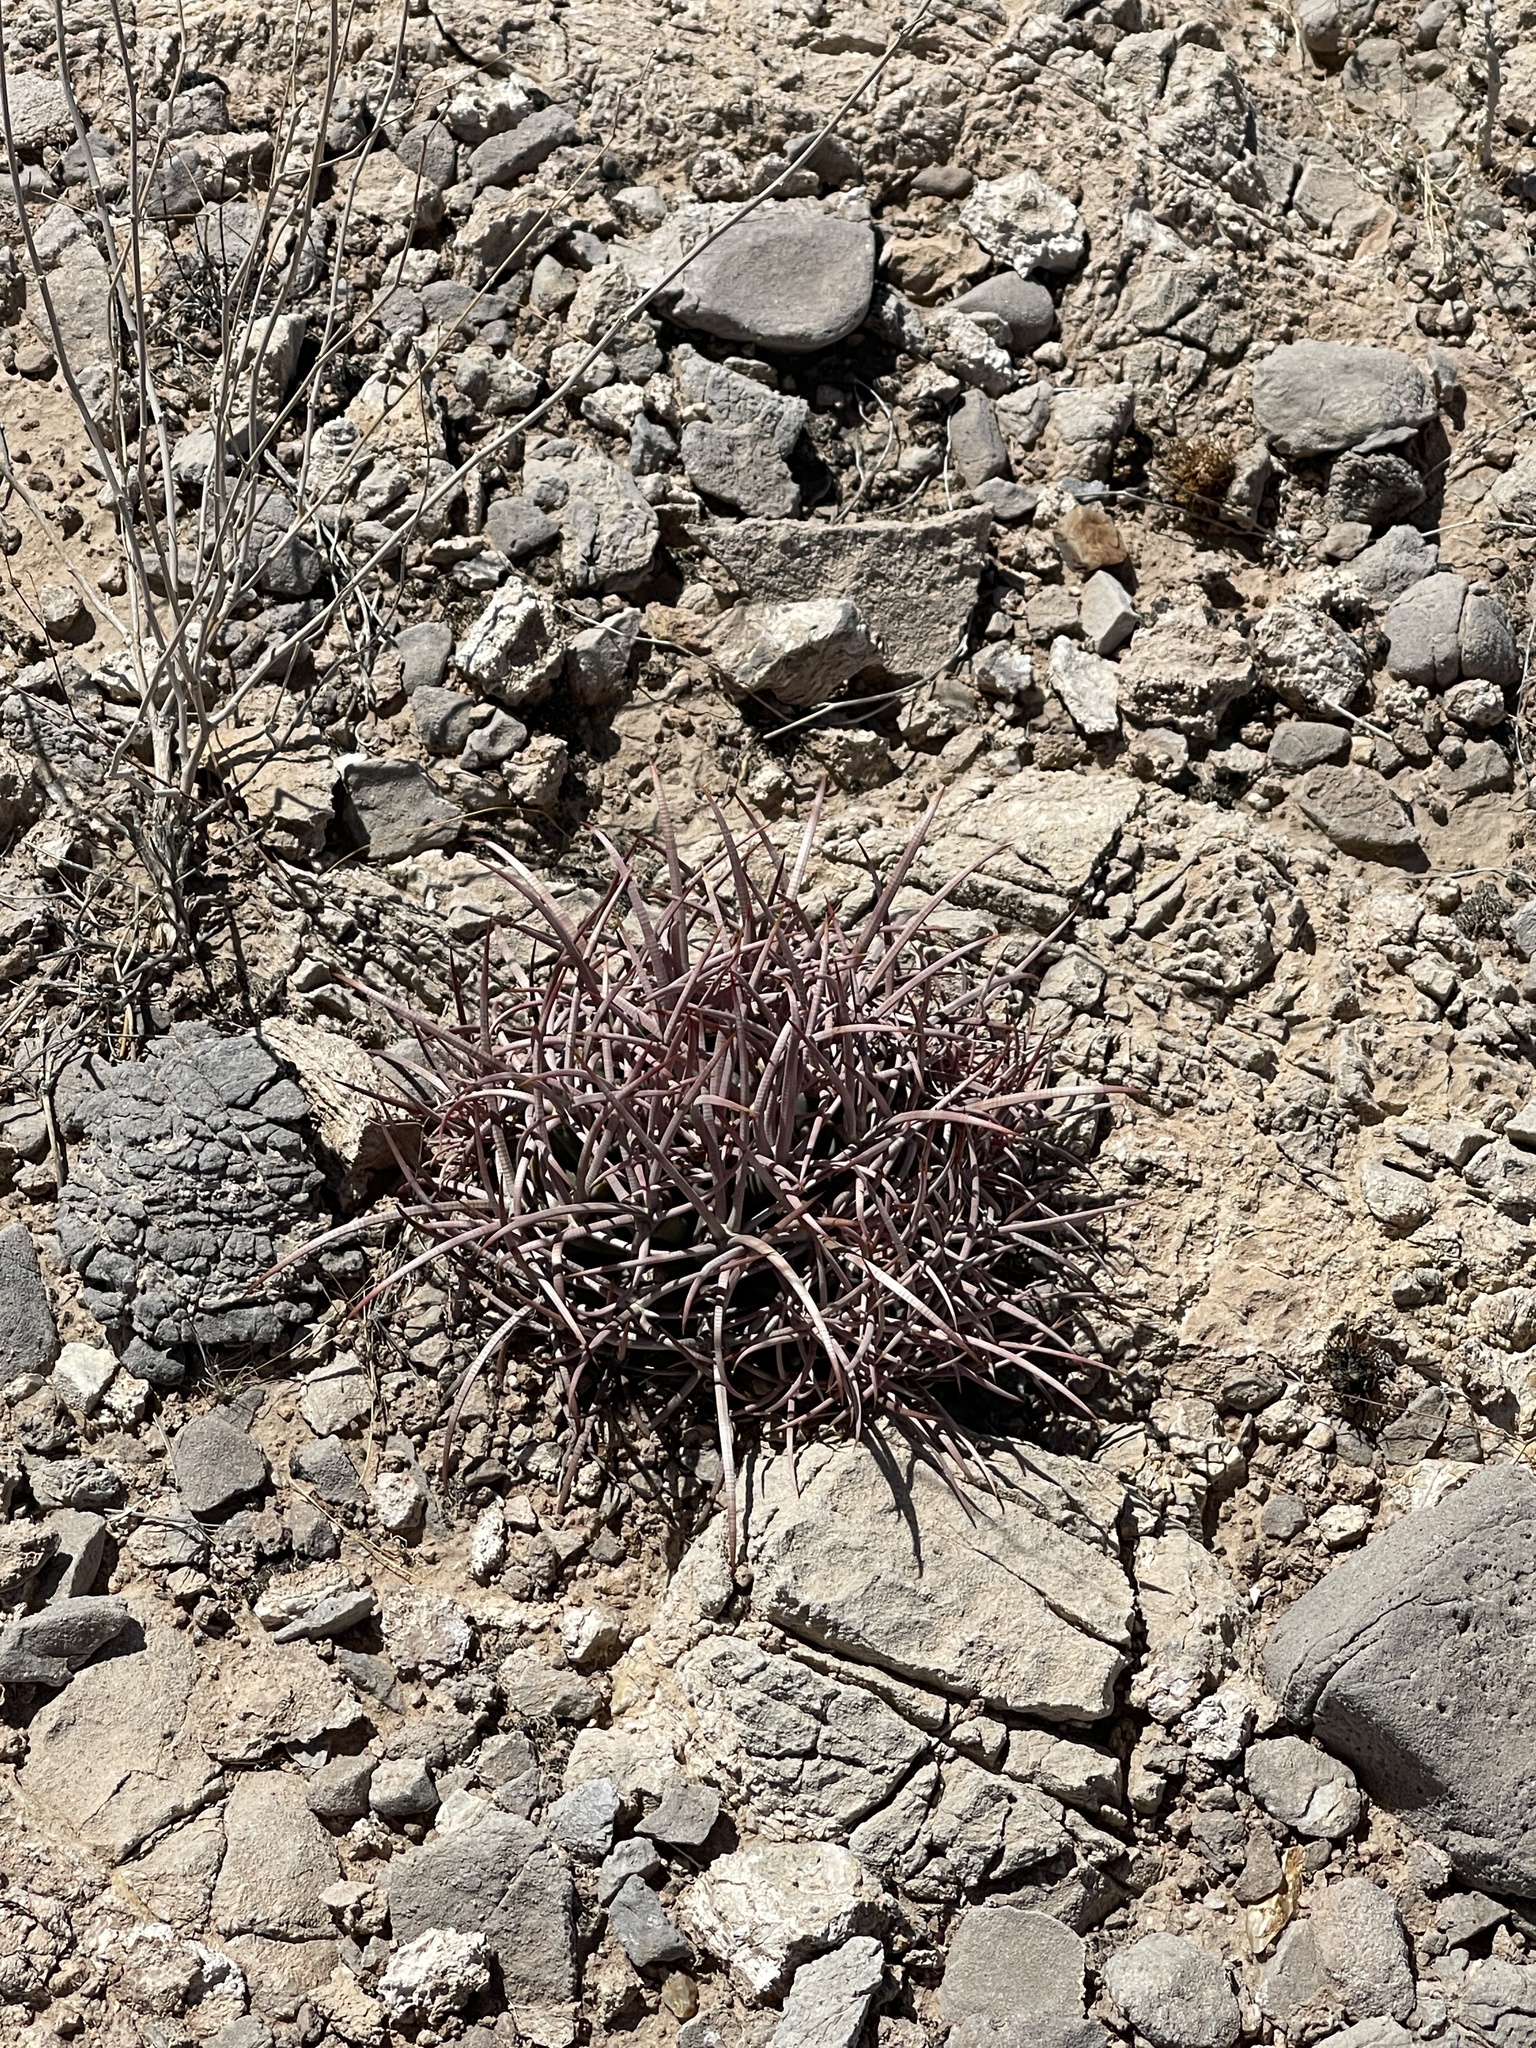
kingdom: Plantae
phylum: Tracheophyta
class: Magnoliopsida
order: Caryophyllales
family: Cactaceae
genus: Echinocactus
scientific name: Echinocactus polycephalus
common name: Cottontop cactus
